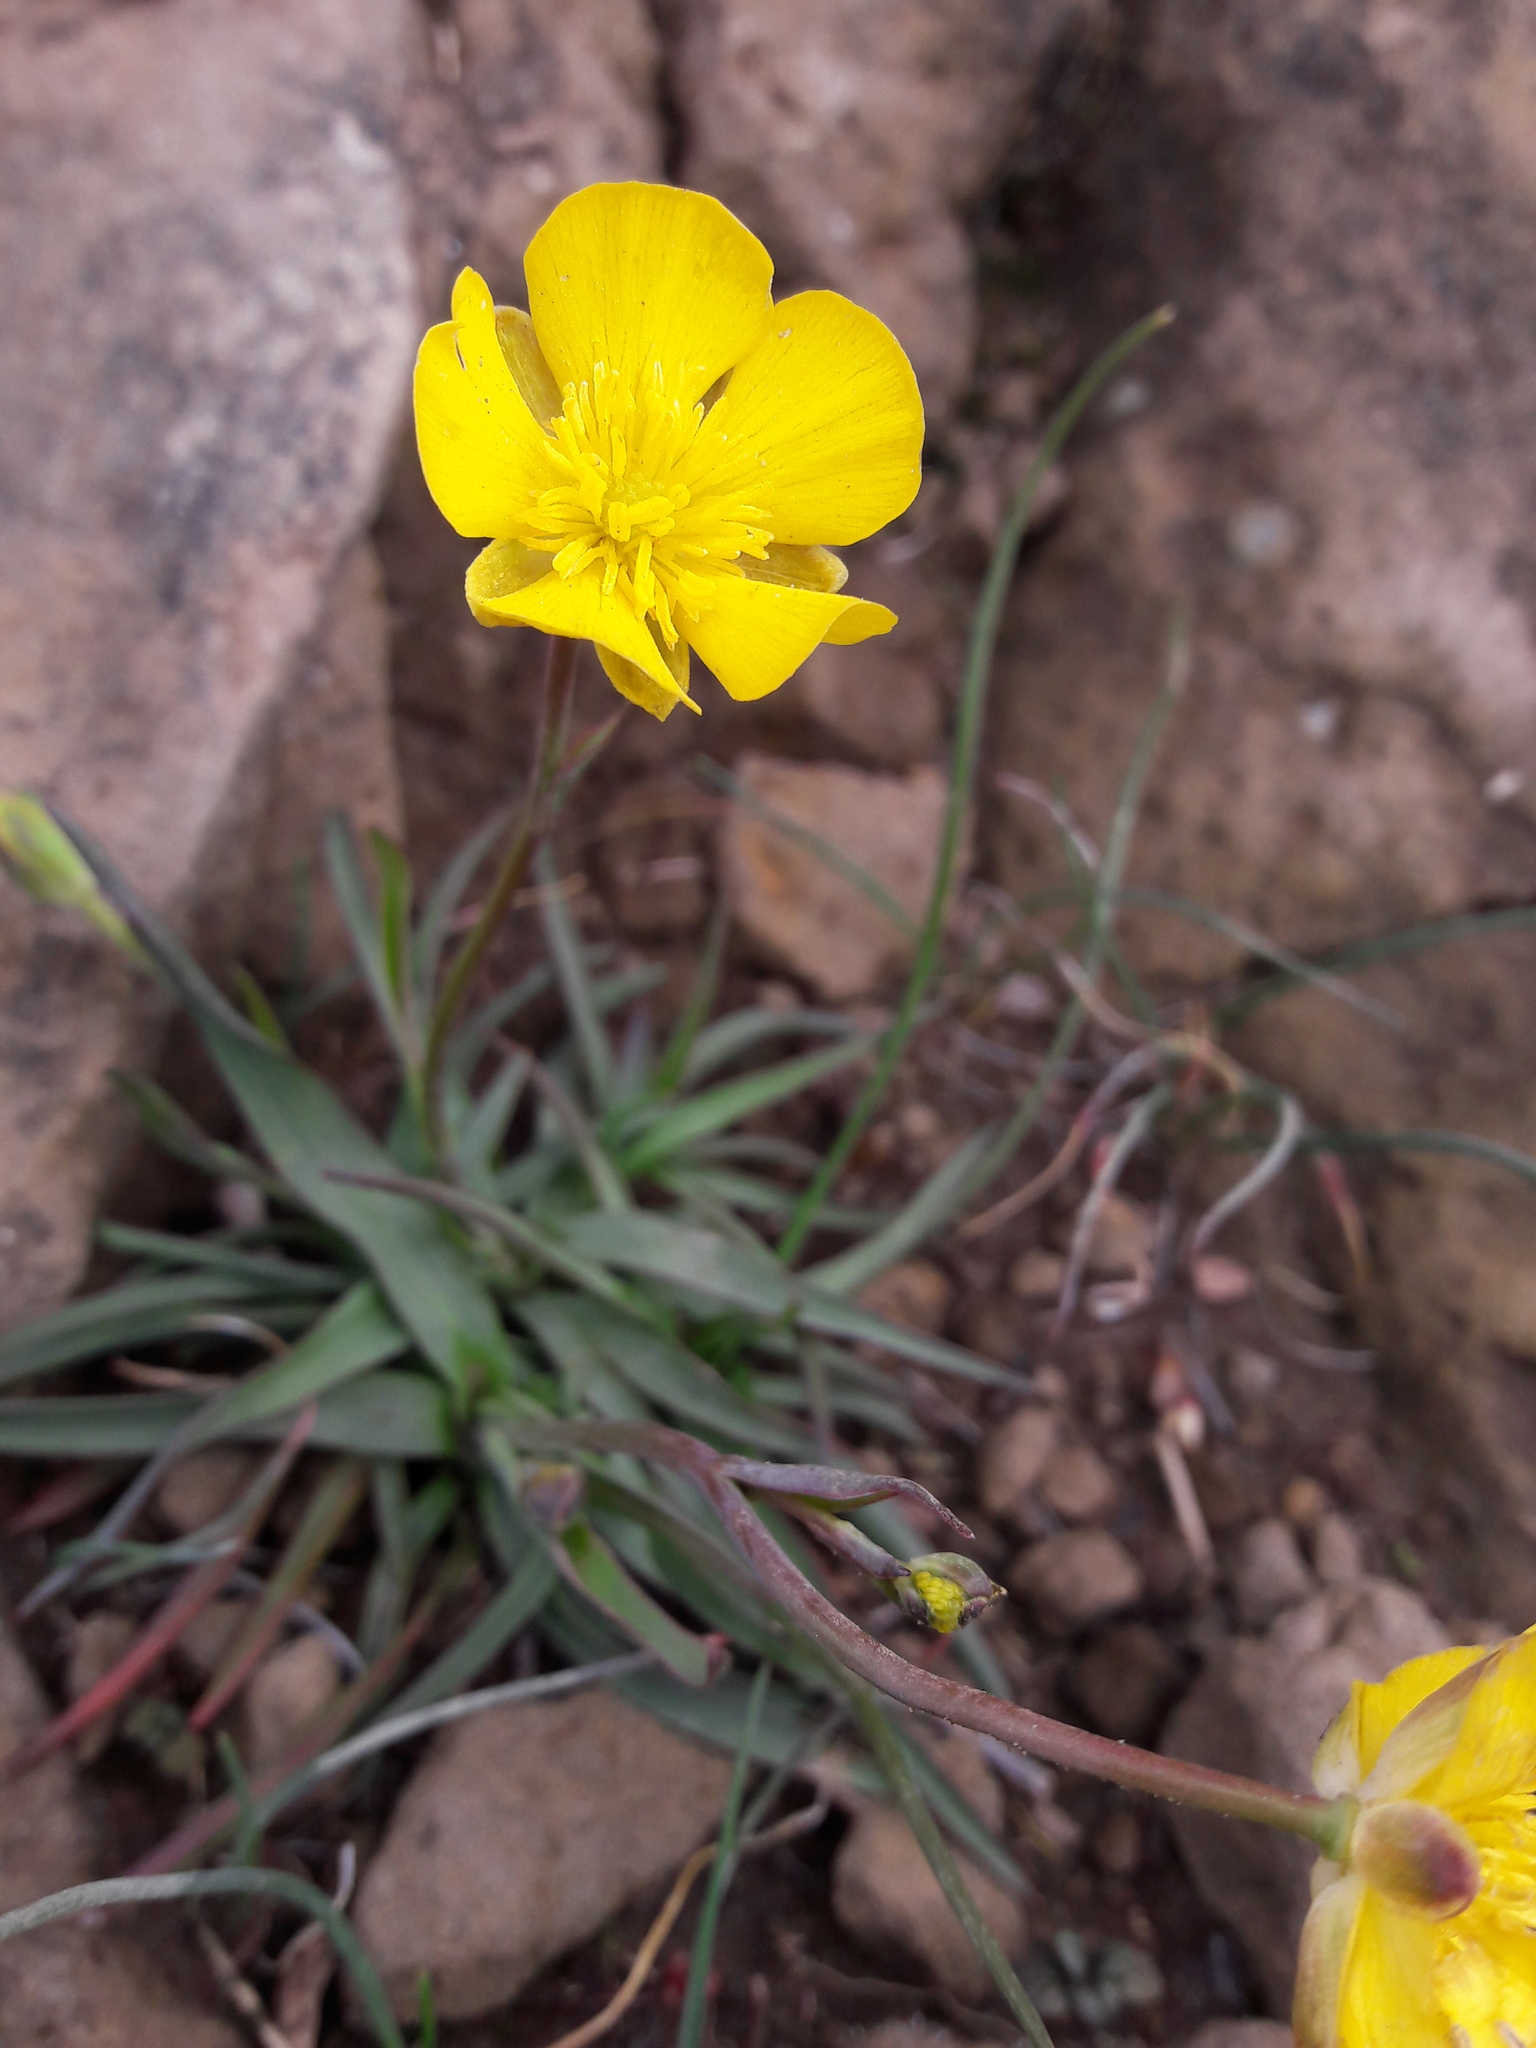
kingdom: Plantae
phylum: Tracheophyta
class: Magnoliopsida
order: Ranunculales
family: Ranunculaceae
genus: Ranunculus
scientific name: Ranunculus gramineus
